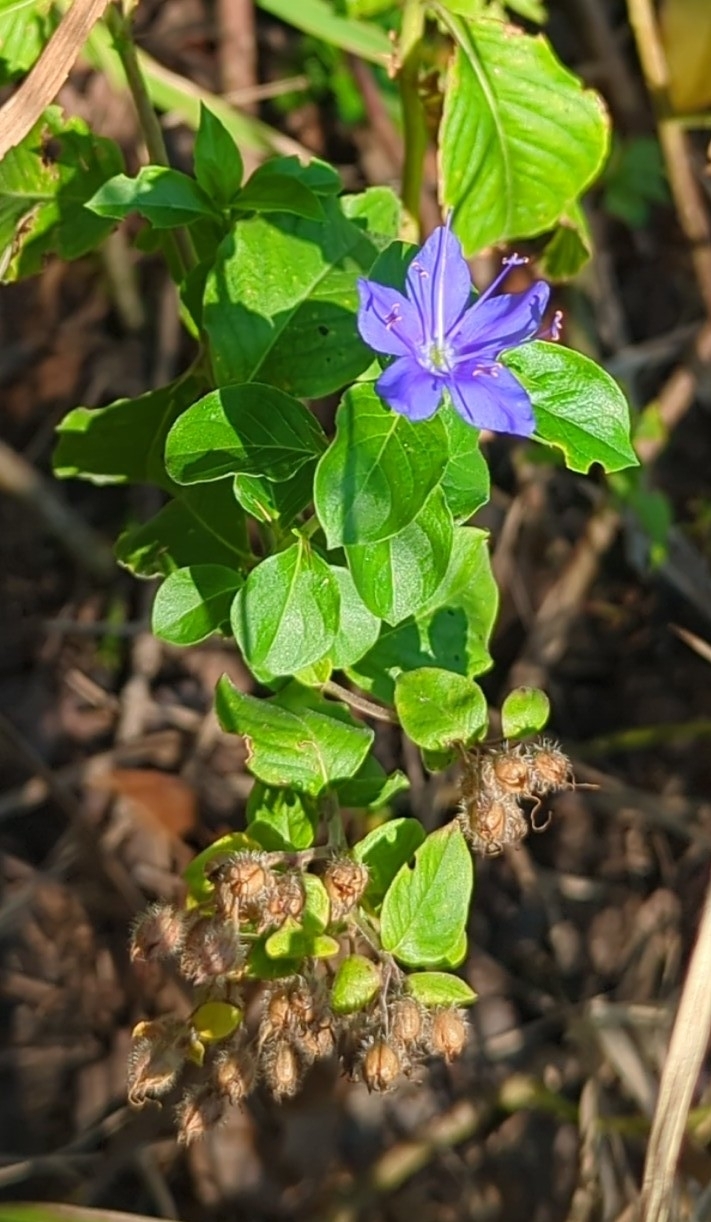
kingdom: Plantae
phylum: Tracheophyta
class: Magnoliopsida
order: Solanales
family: Hydroleaceae
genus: Hydrolea
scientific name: Hydrolea ovata
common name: Ovate false fiddleleaf
